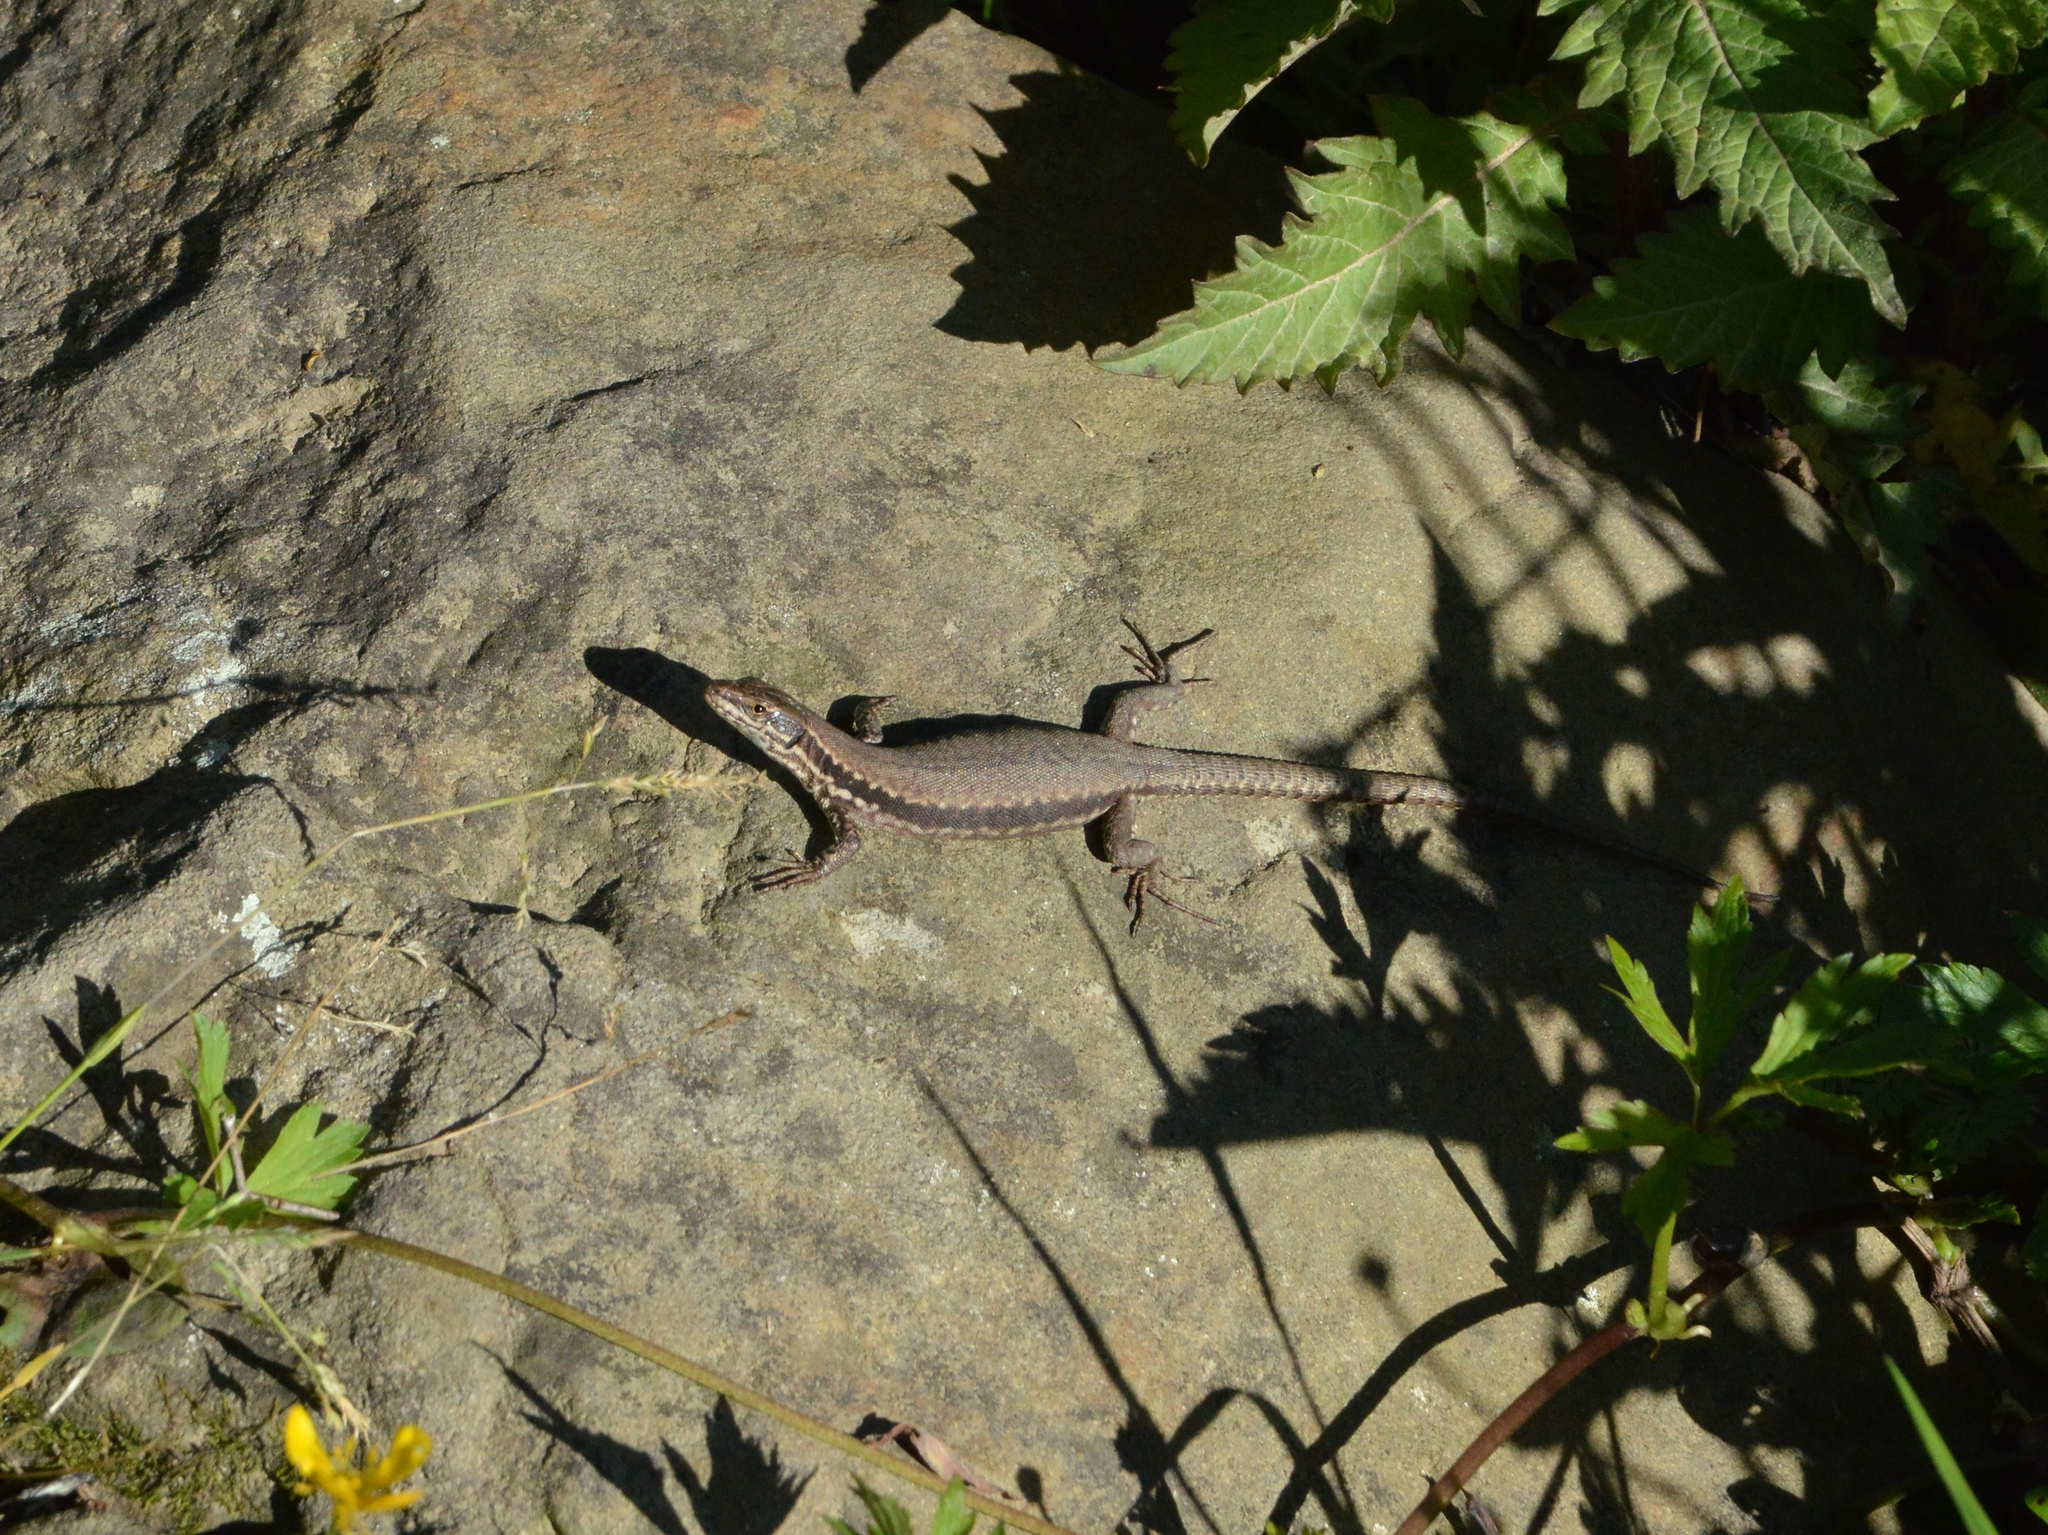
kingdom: Animalia
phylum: Chordata
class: Squamata
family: Lacertidae
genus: Podarcis
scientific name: Podarcis muralis
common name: Common wall lizard
